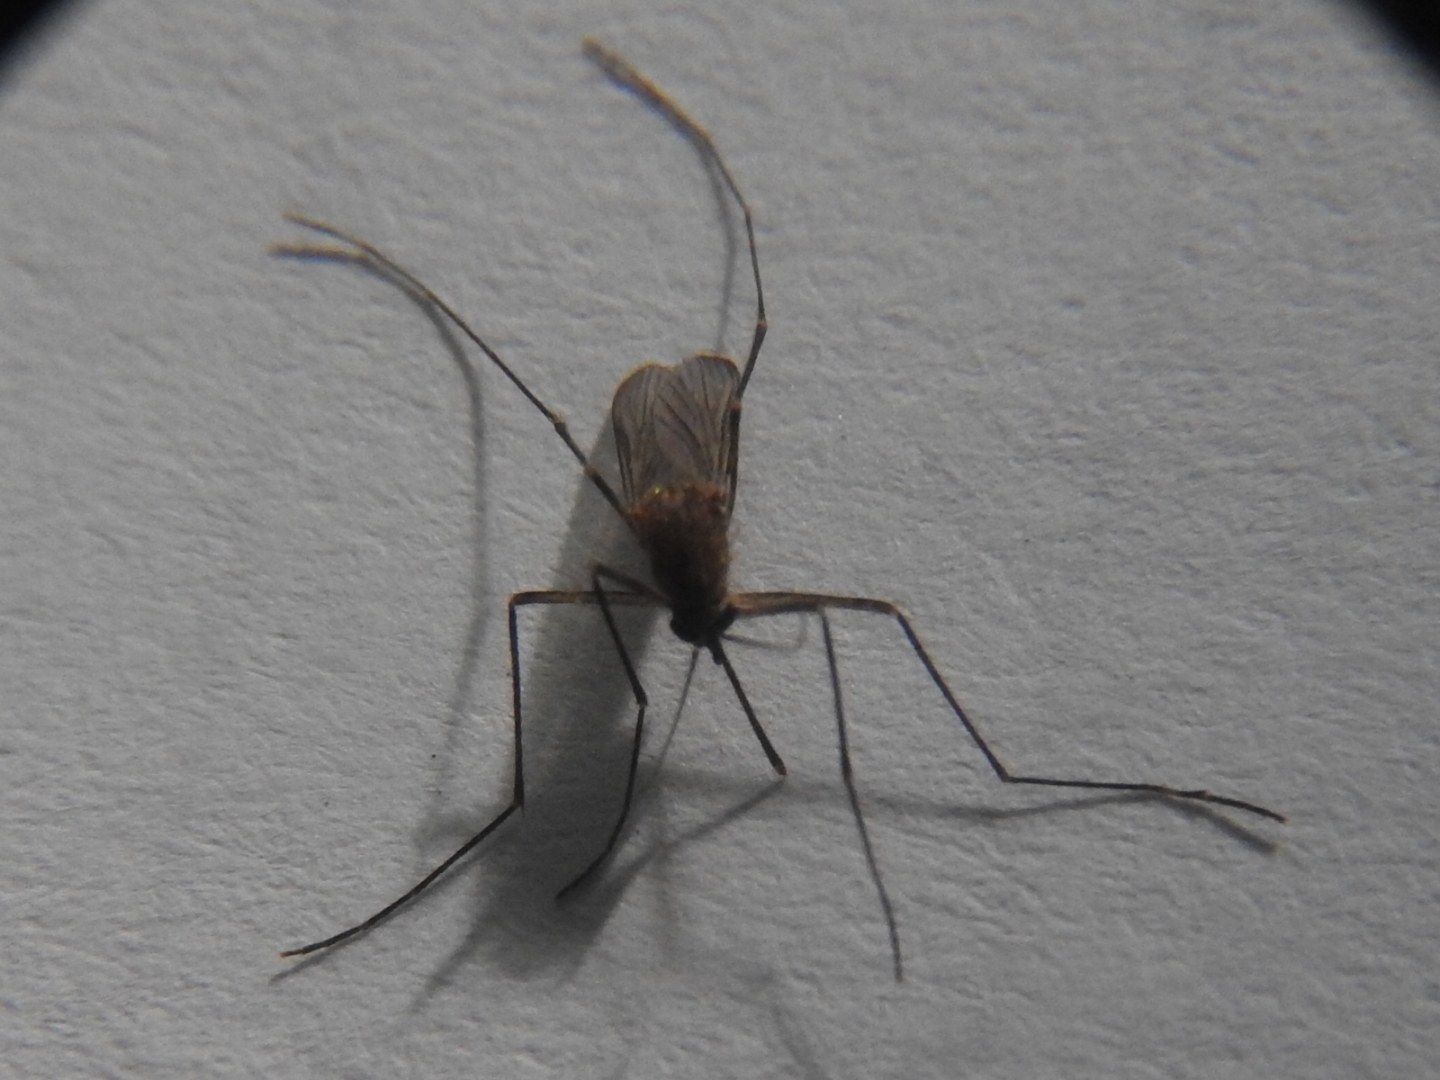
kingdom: Animalia
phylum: Arthropoda
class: Insecta
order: Diptera
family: Culicidae
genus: Culex
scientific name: Culex quinquefasciatus
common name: Southern house mosquito
